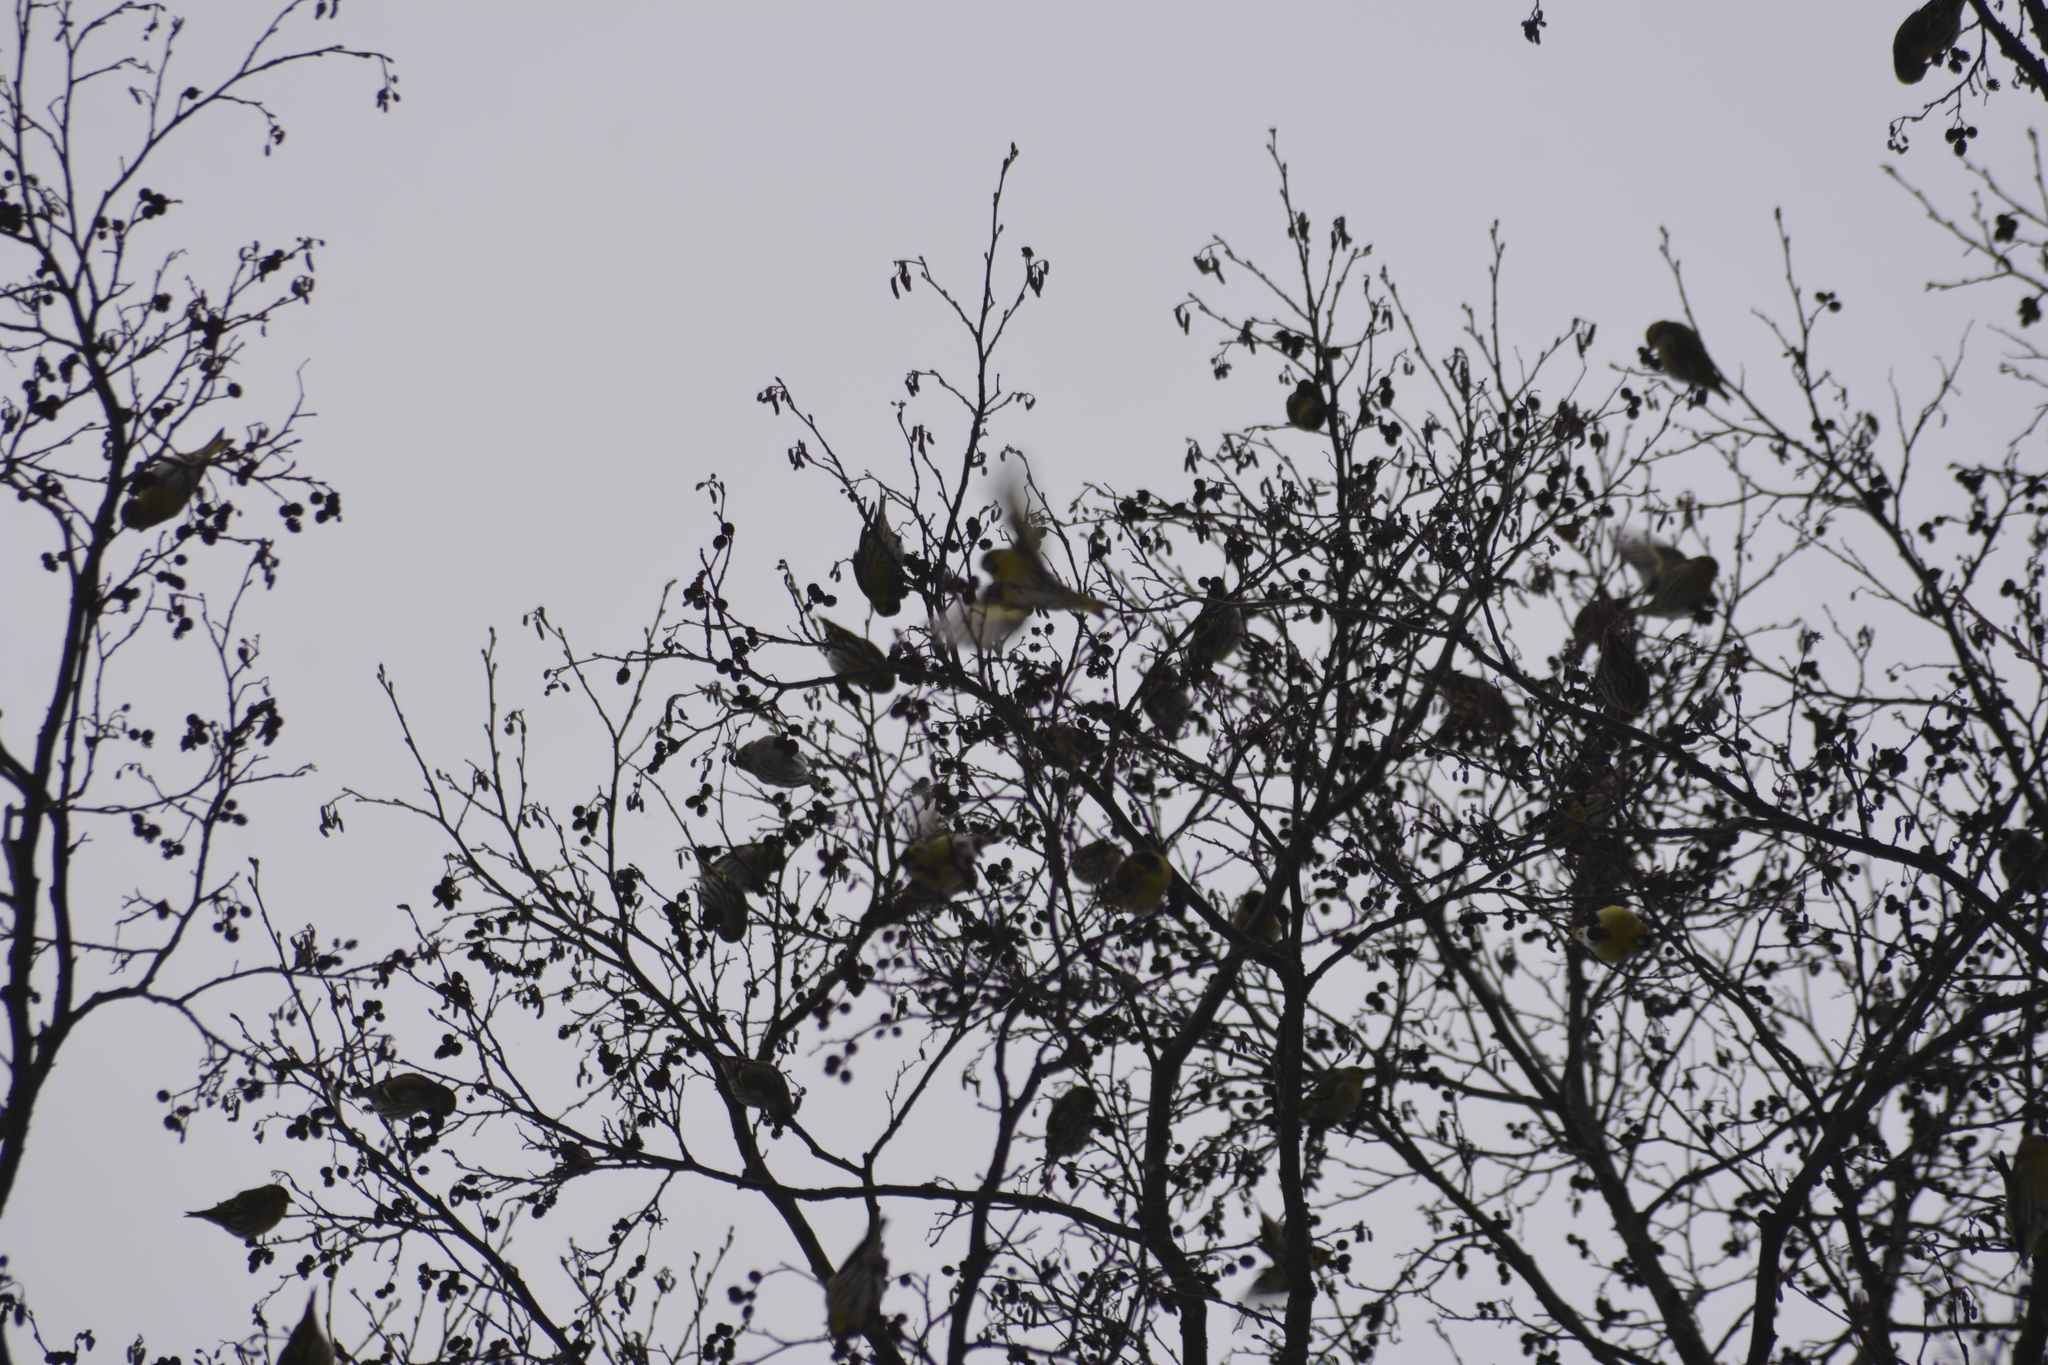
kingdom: Animalia
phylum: Chordata
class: Aves
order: Passeriformes
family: Fringillidae
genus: Spinus
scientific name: Spinus spinus
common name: Eurasian siskin
